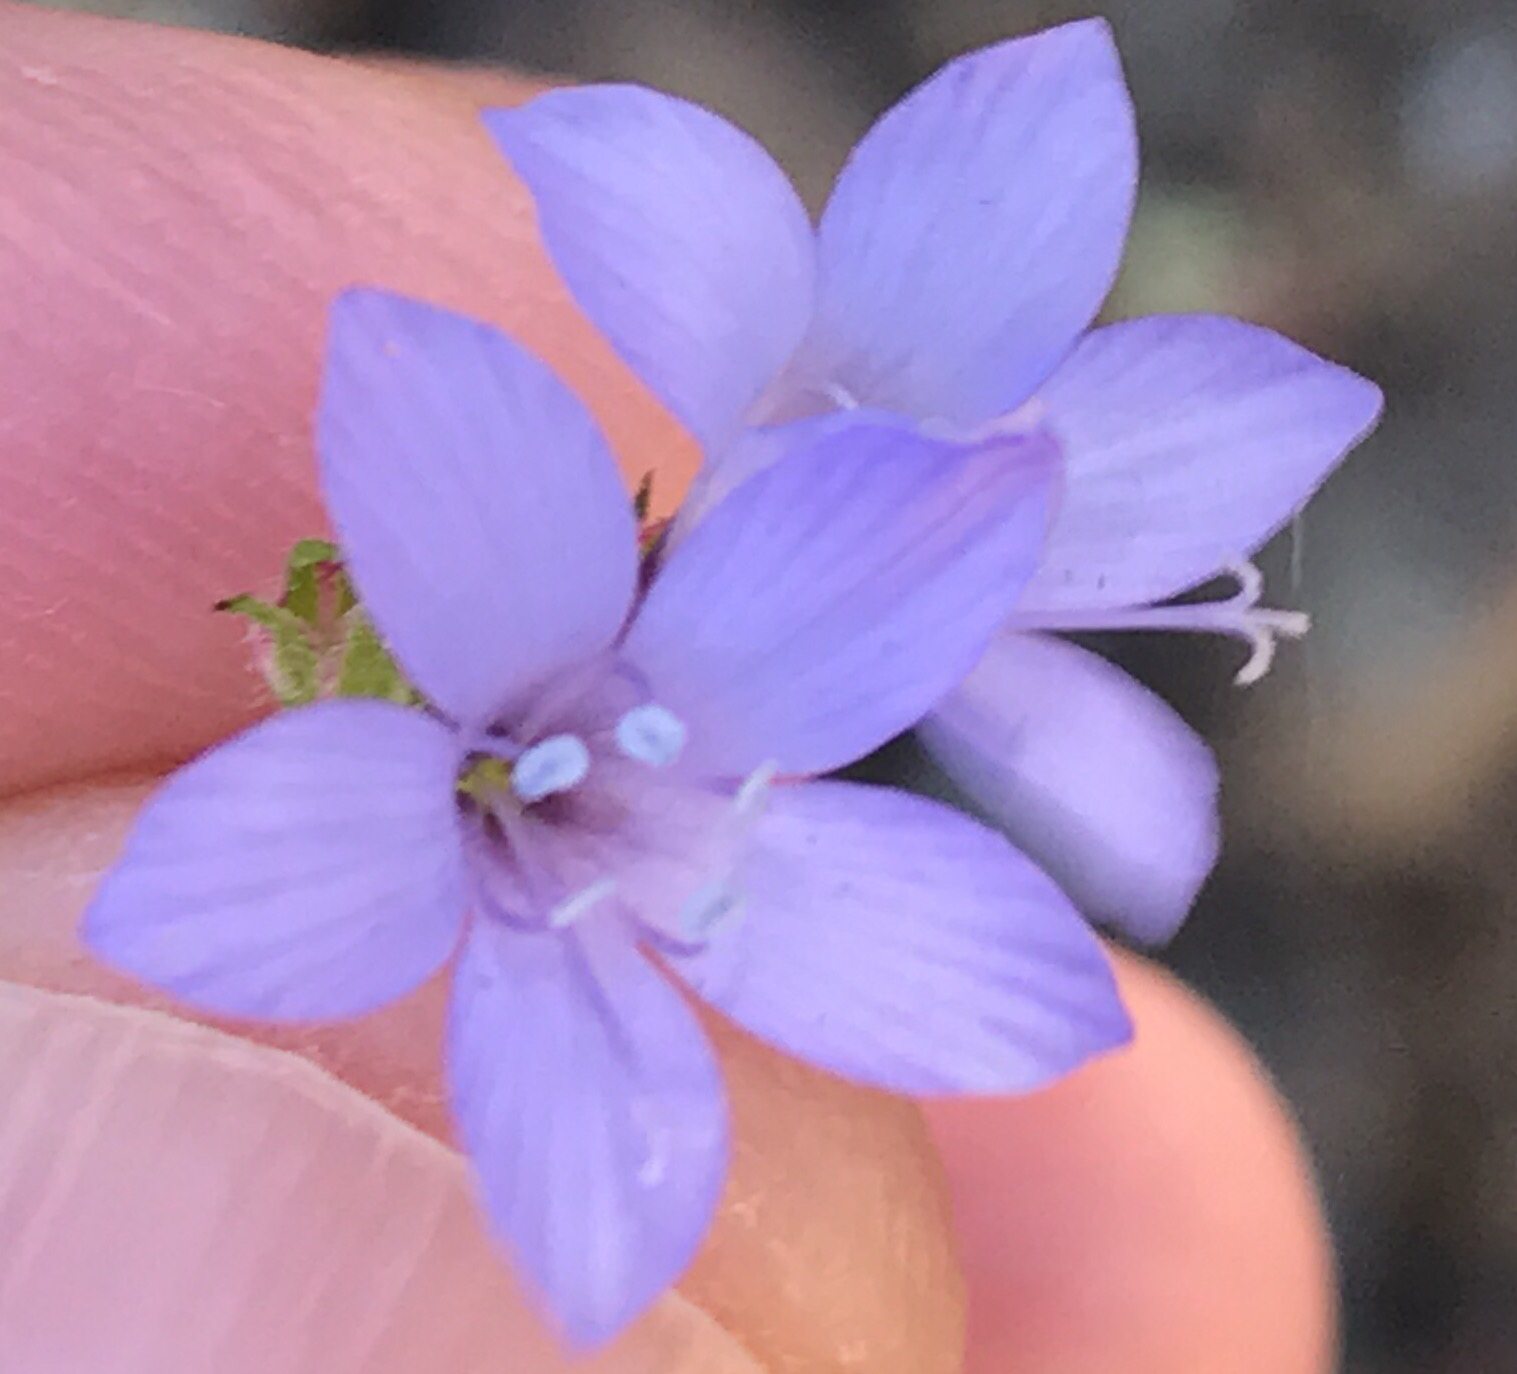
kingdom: Plantae
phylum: Tracheophyta
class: Magnoliopsida
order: Ericales
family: Polemoniaceae
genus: Gilia
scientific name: Gilia achilleifolia
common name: California gily-flower
